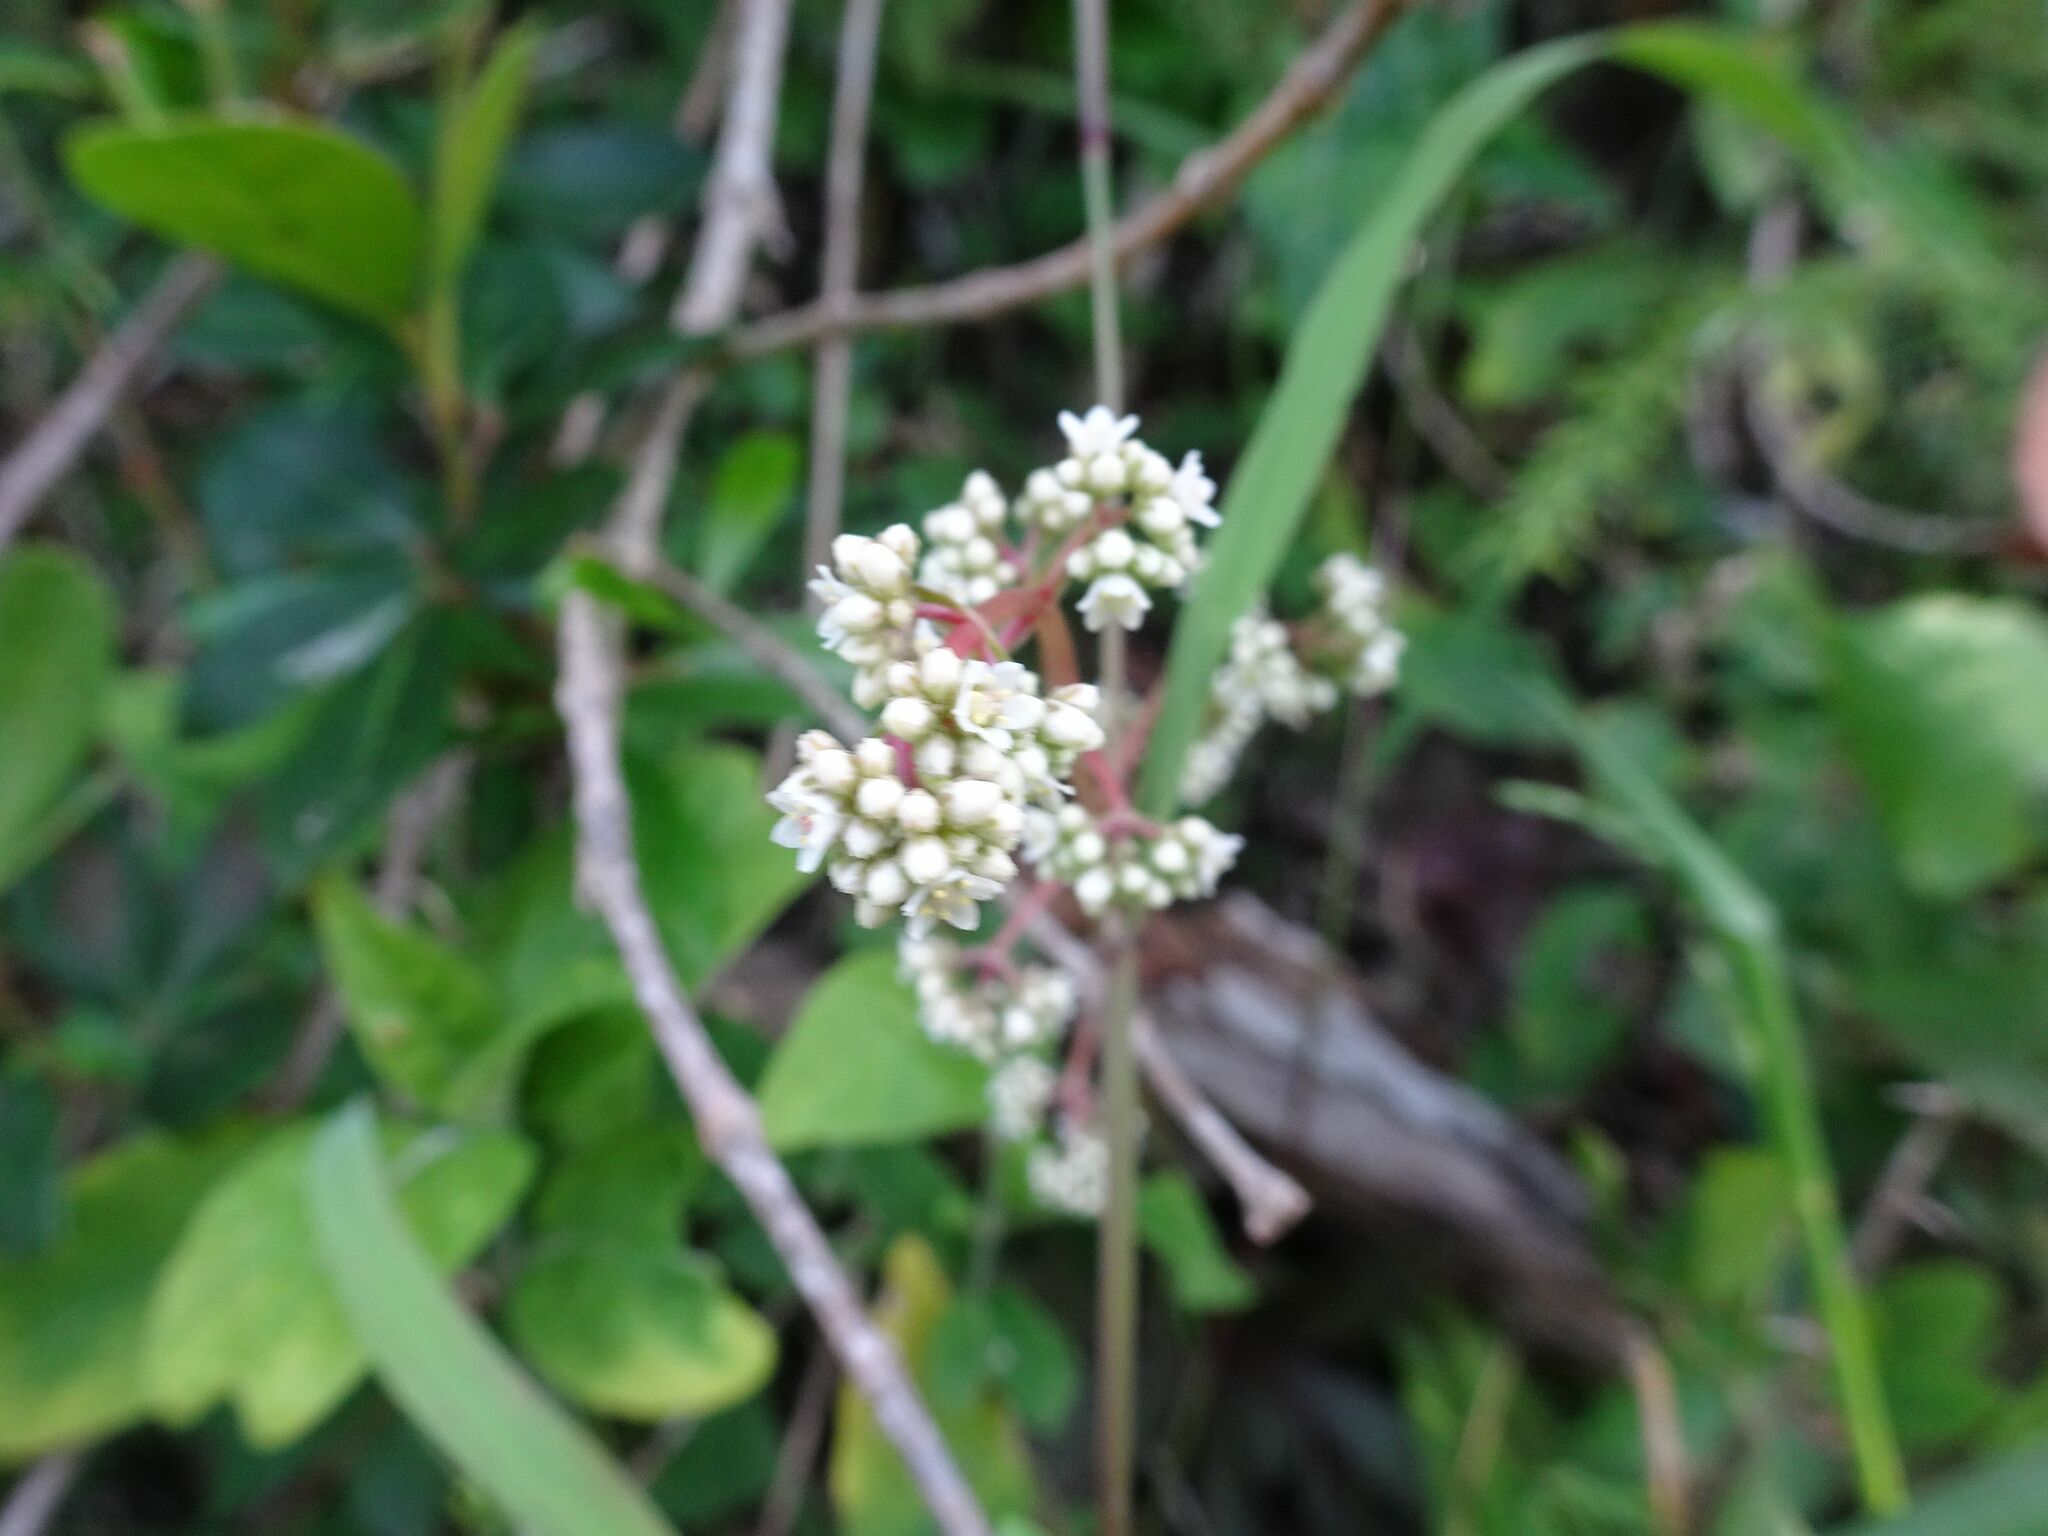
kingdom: Plantae
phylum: Tracheophyta
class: Magnoliopsida
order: Saxifragales
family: Crassulaceae
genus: Crassula
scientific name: Crassula orbicularis
